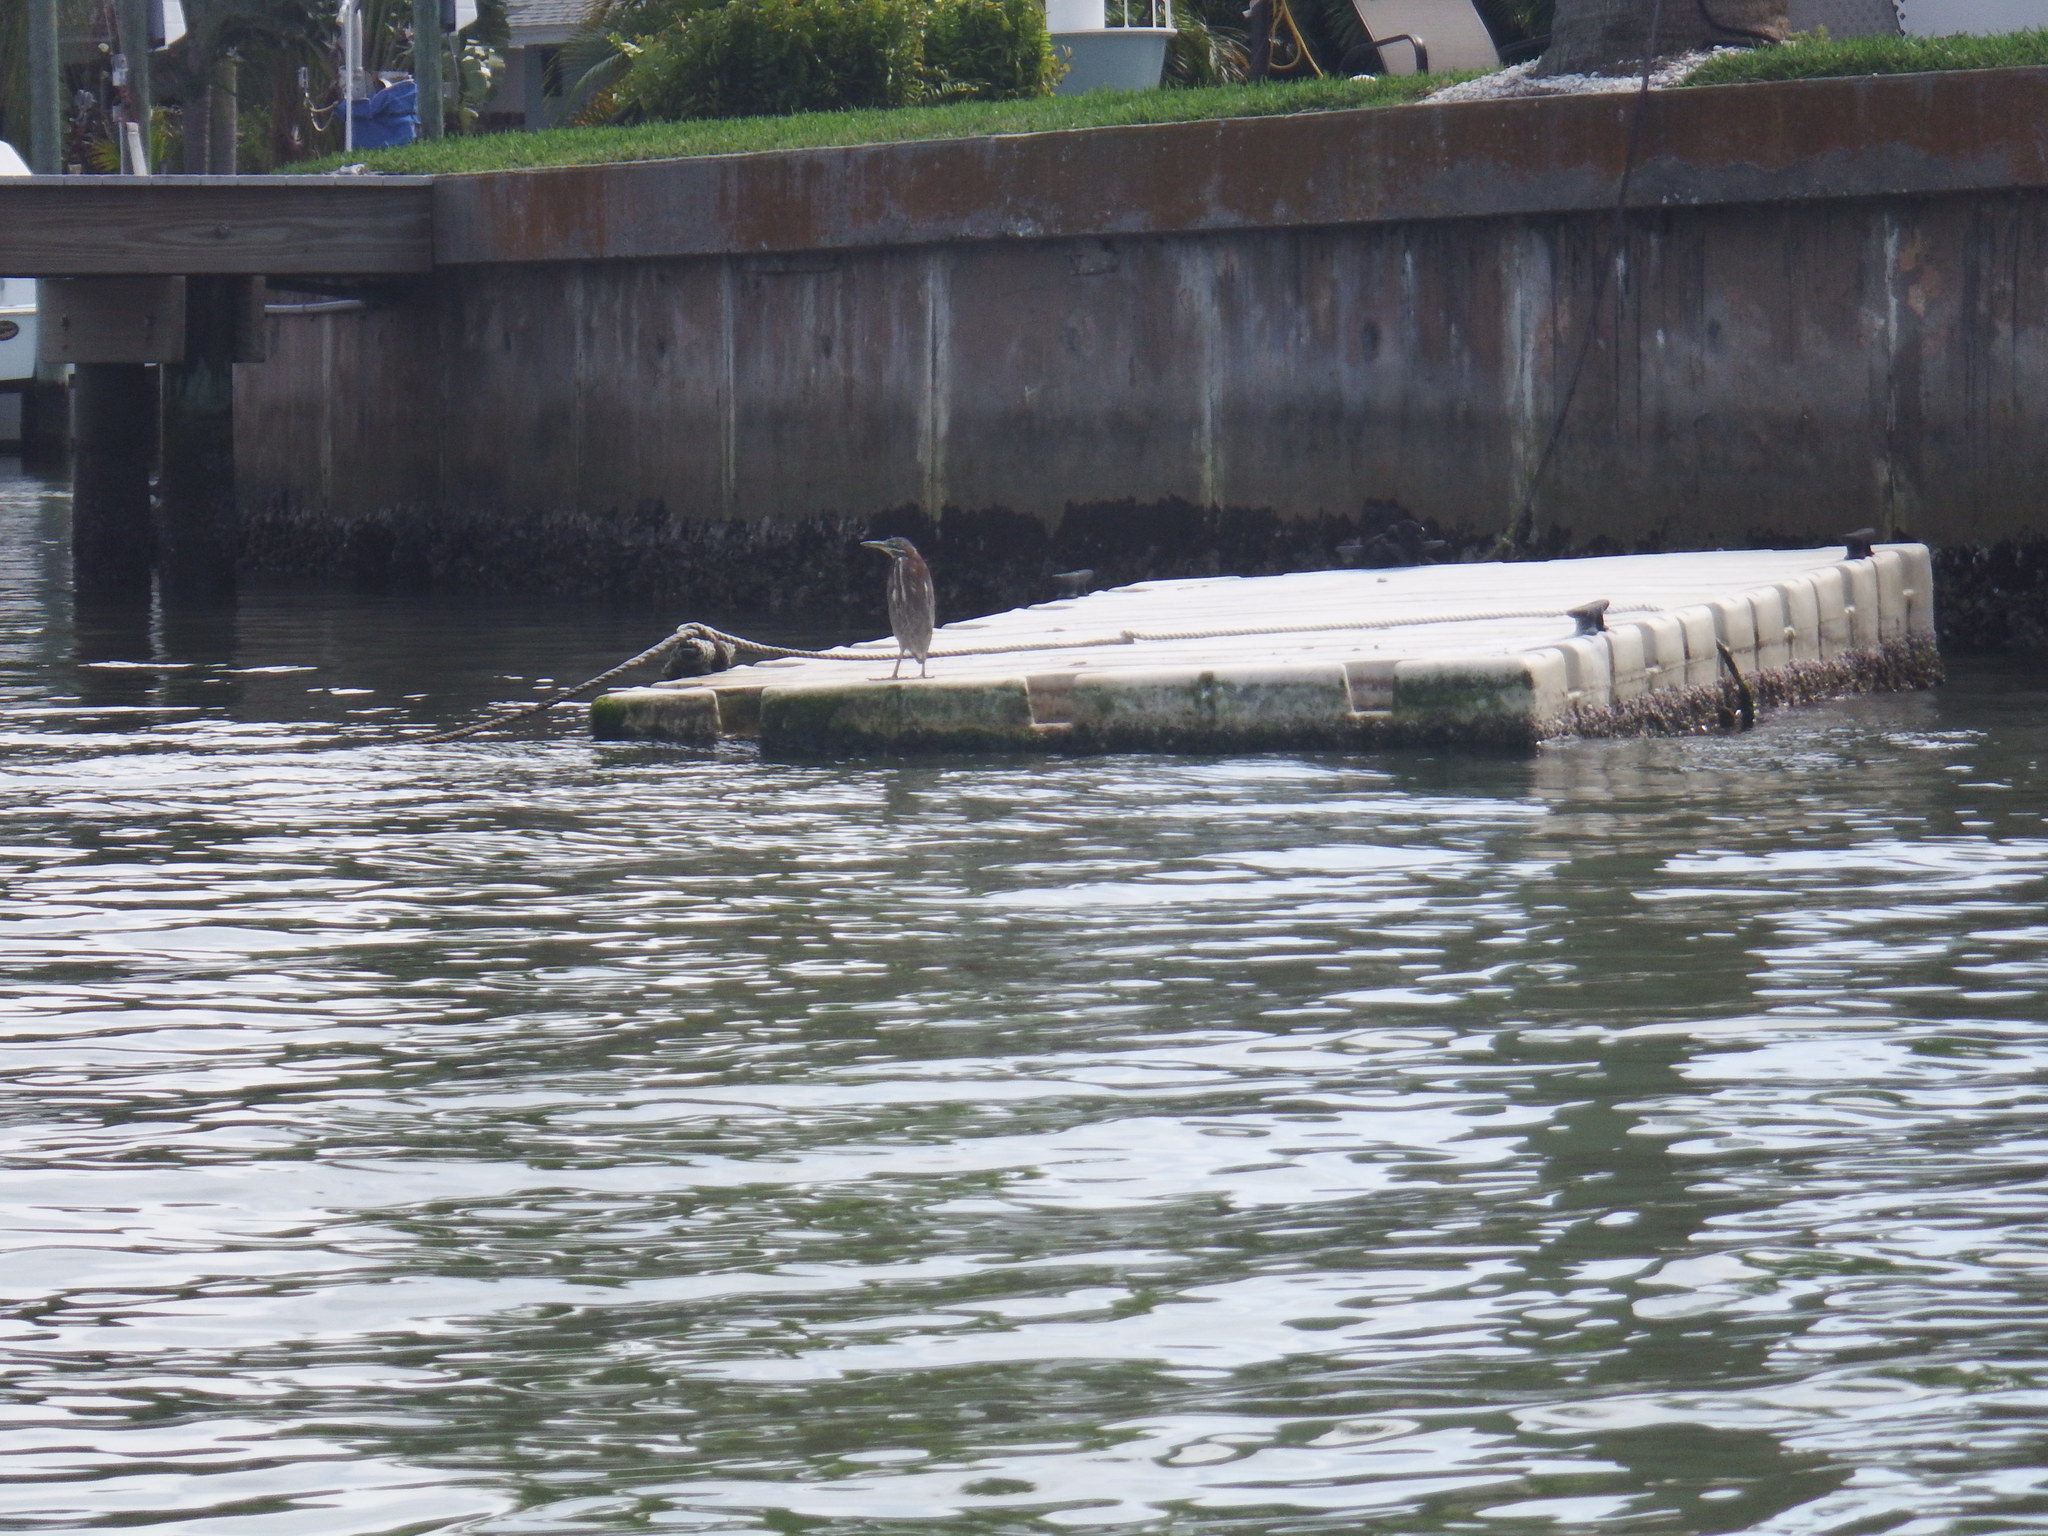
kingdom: Animalia
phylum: Chordata
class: Aves
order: Pelecaniformes
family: Ardeidae
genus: Butorides
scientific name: Butorides virescens
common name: Green heron
